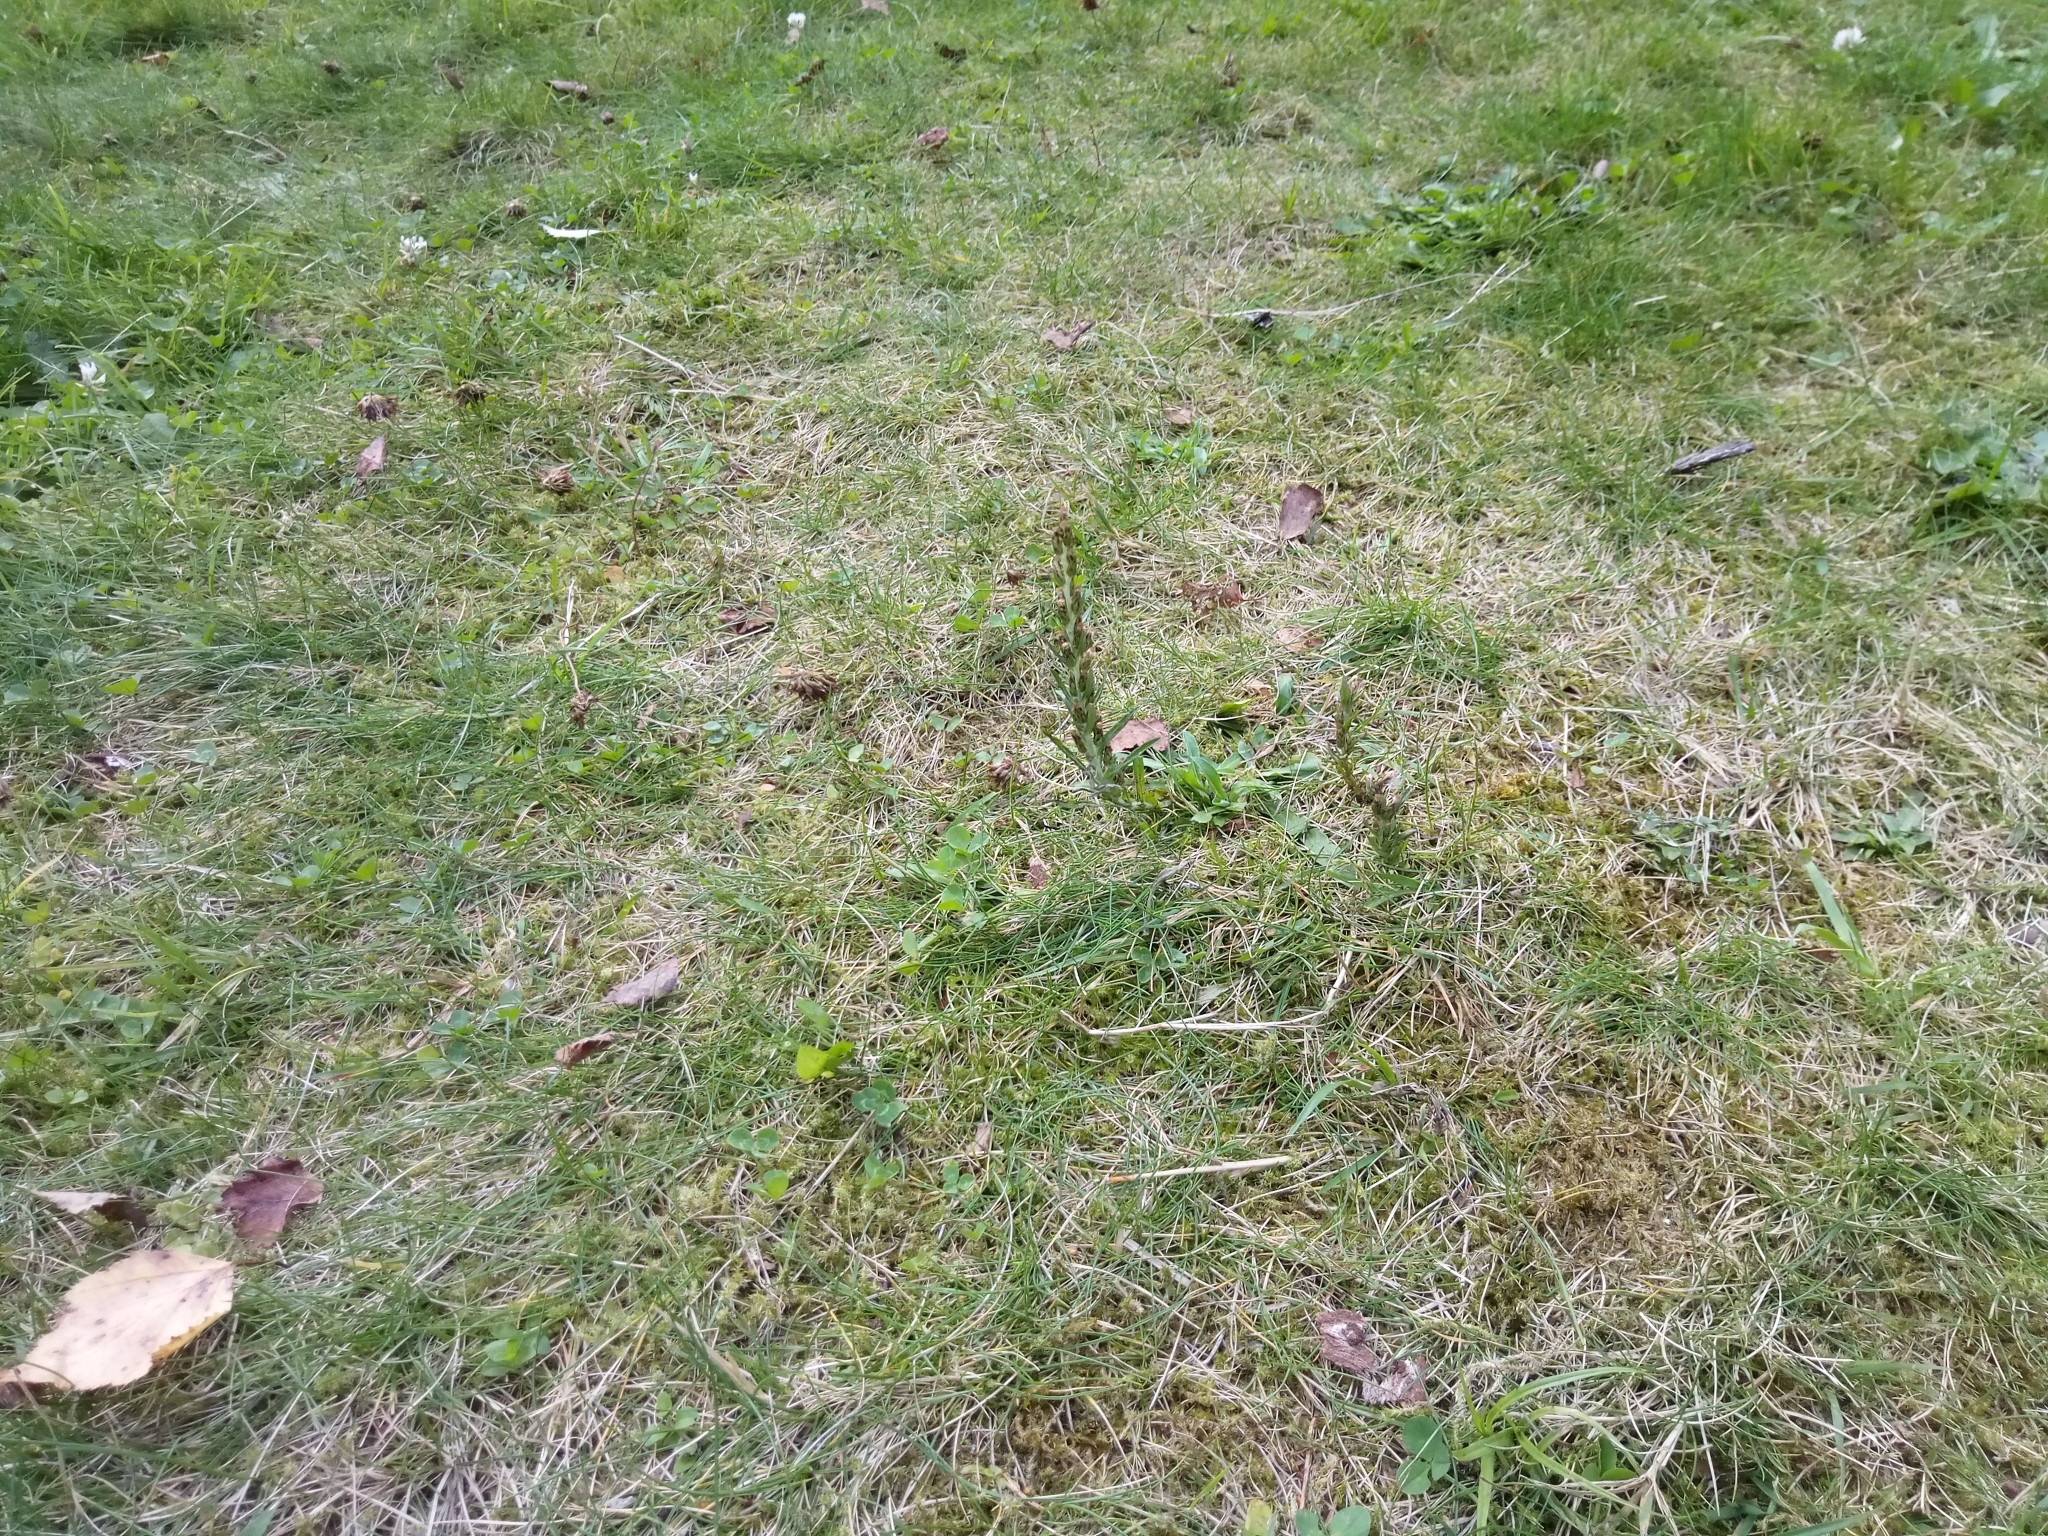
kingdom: Plantae
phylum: Tracheophyta
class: Magnoliopsida
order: Asterales
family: Asteraceae
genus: Omalotheca
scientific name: Omalotheca sylvatica
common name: Heath cudweed
